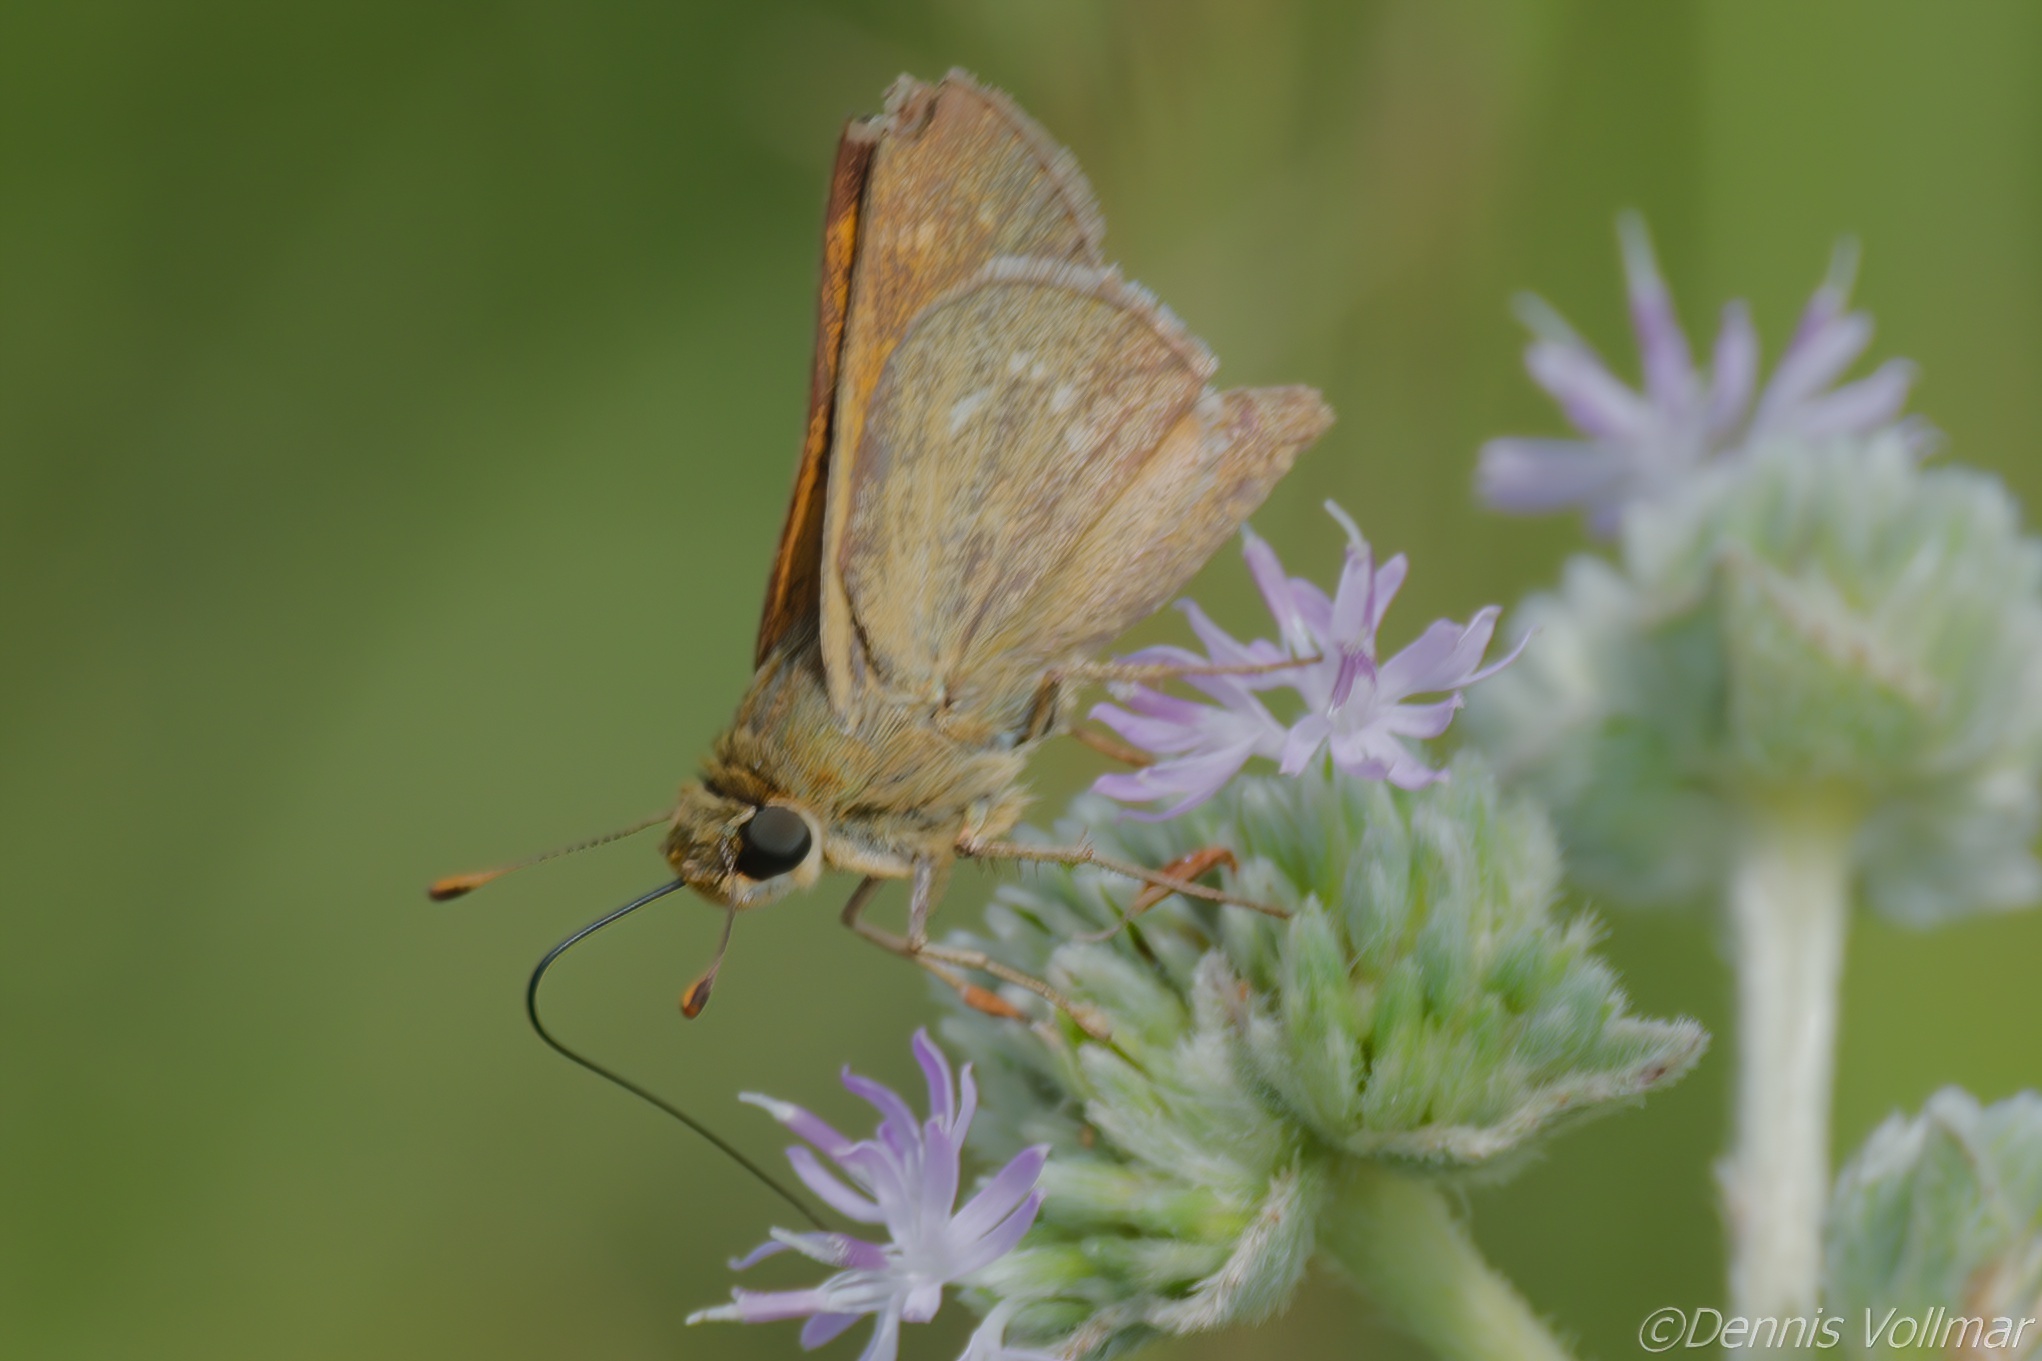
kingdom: Animalia
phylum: Arthropoda
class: Insecta
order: Lepidoptera
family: Hesperiidae
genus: Hesperia
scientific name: Hesperia attalus
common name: Dotted skipper
